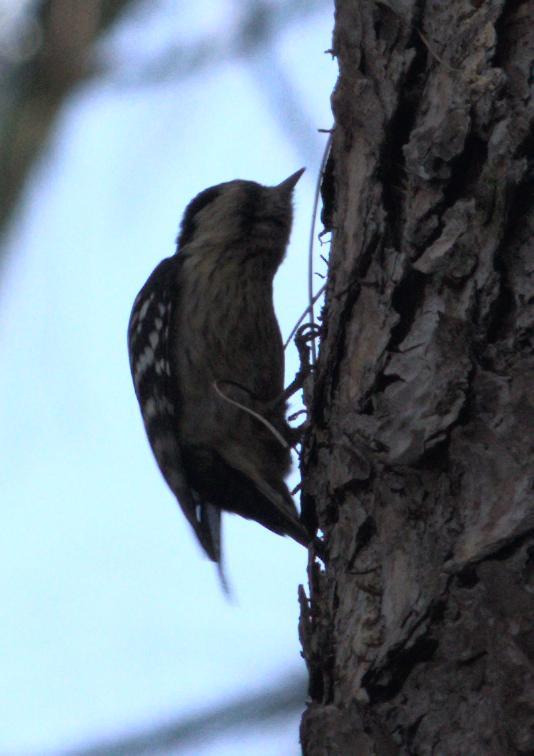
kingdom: Animalia
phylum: Chordata
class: Aves
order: Piciformes
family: Picidae
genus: Yungipicus
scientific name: Yungipicus canicapillus
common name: Grey-capped pygmy woodpecker
